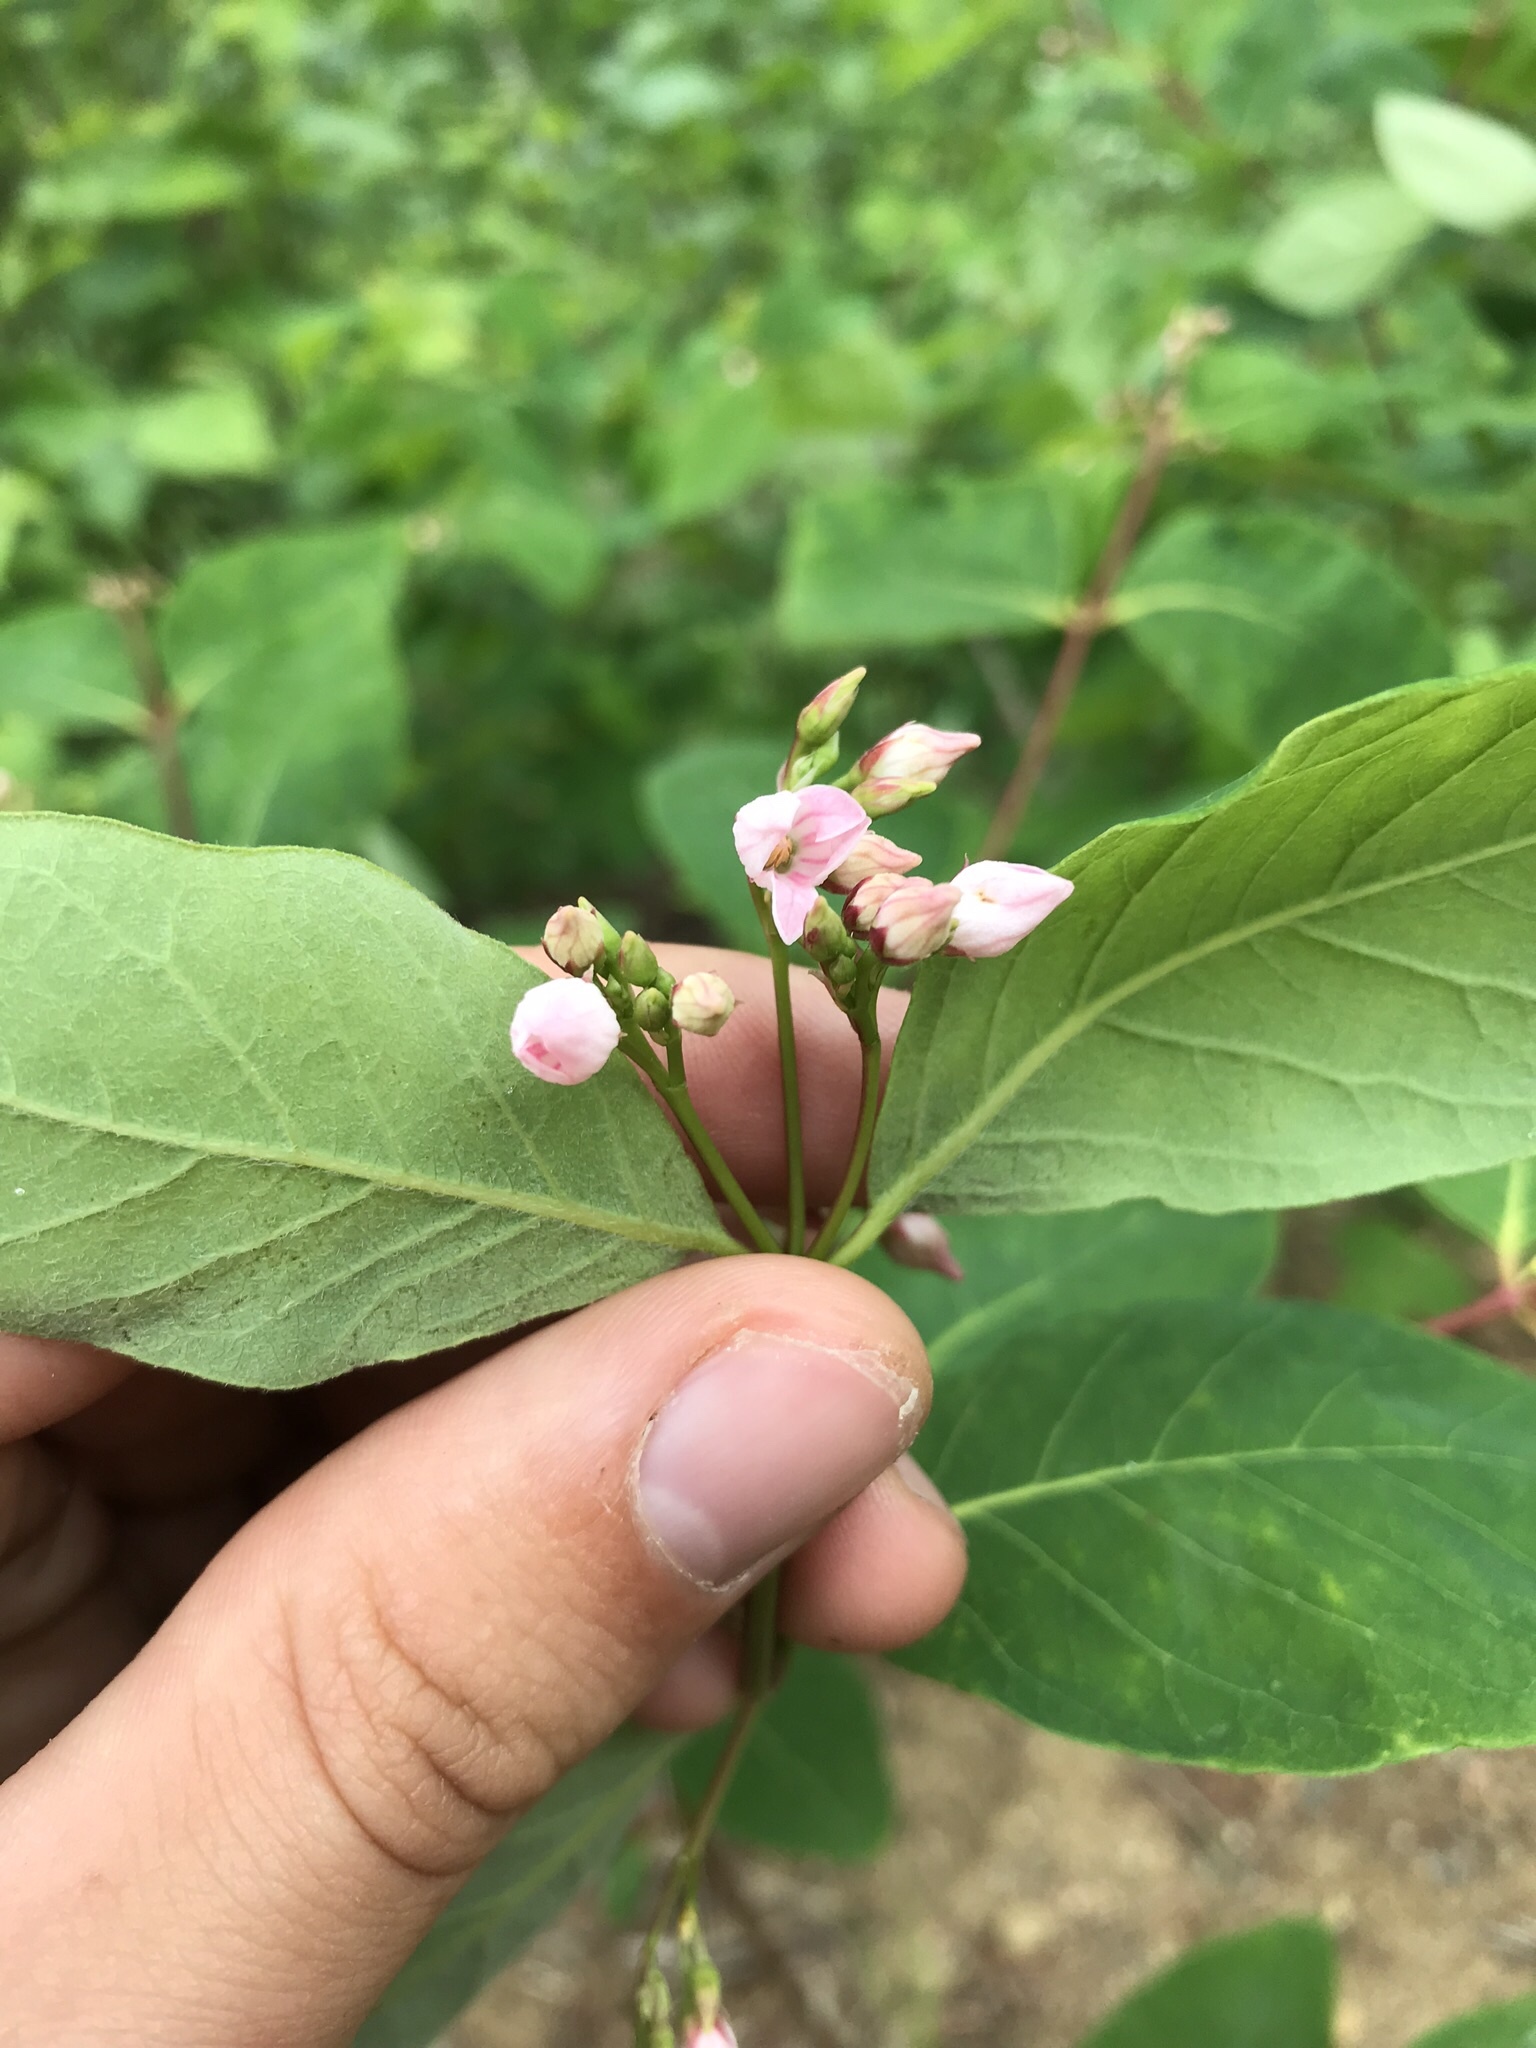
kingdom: Plantae
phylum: Tracheophyta
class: Magnoliopsida
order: Gentianales
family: Apocynaceae
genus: Apocynum
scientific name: Apocynum androsaemifolium
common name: Spreading dogbane
